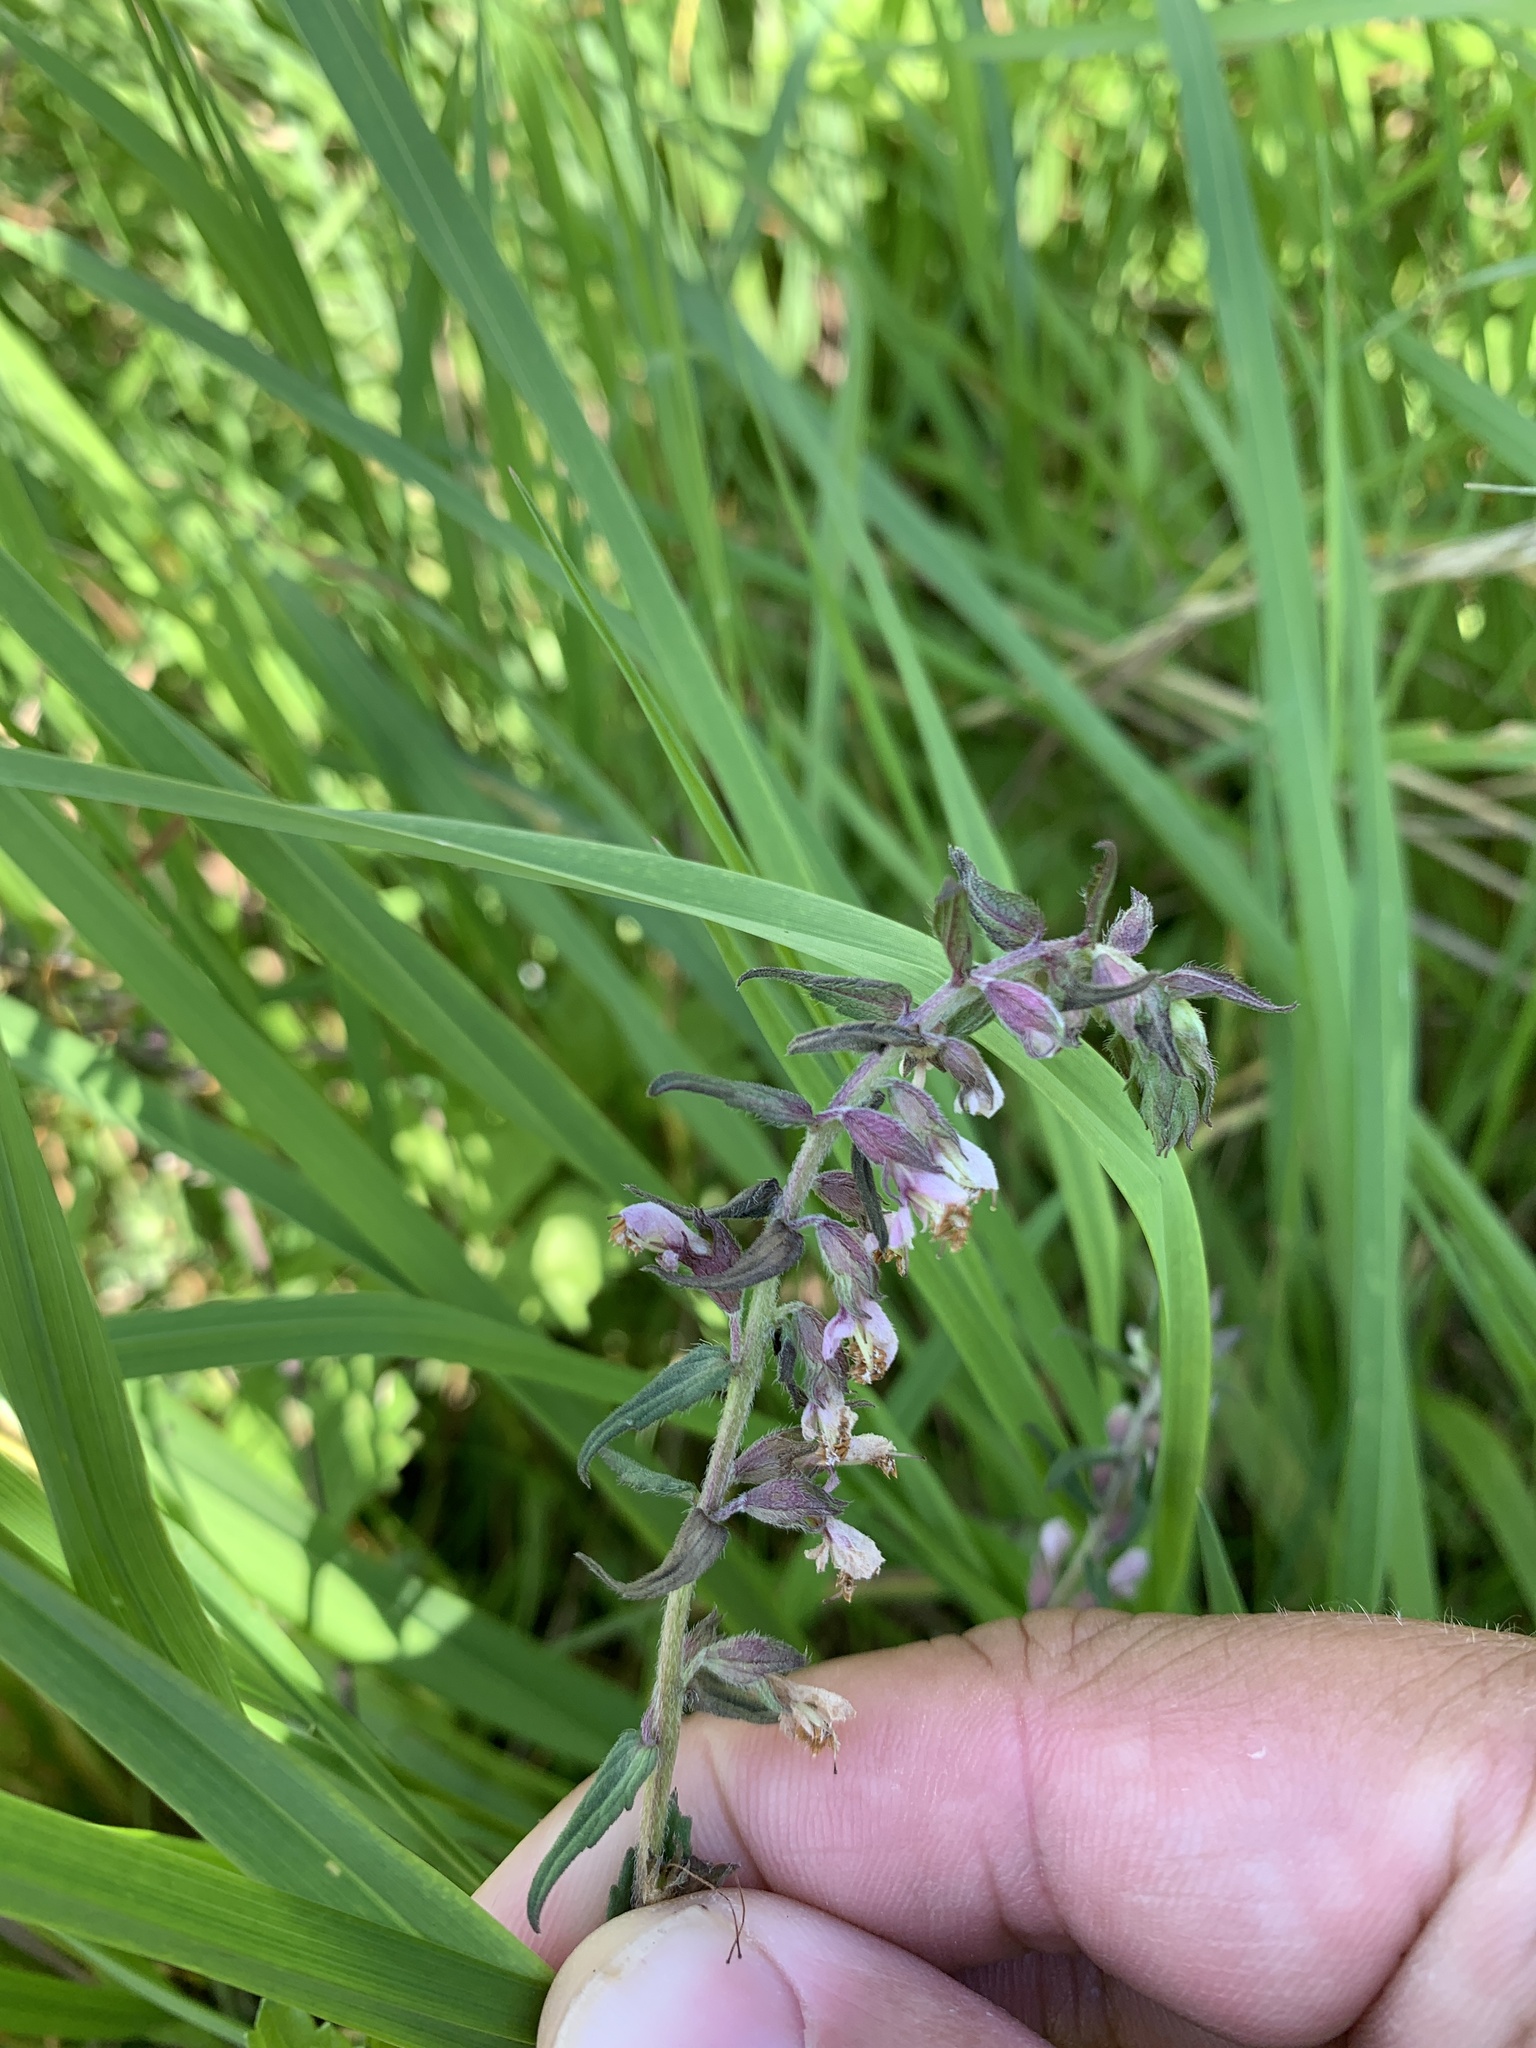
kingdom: Plantae
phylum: Tracheophyta
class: Magnoliopsida
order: Lamiales
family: Orobanchaceae
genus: Odontites
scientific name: Odontites vulgaris
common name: Broomrape
